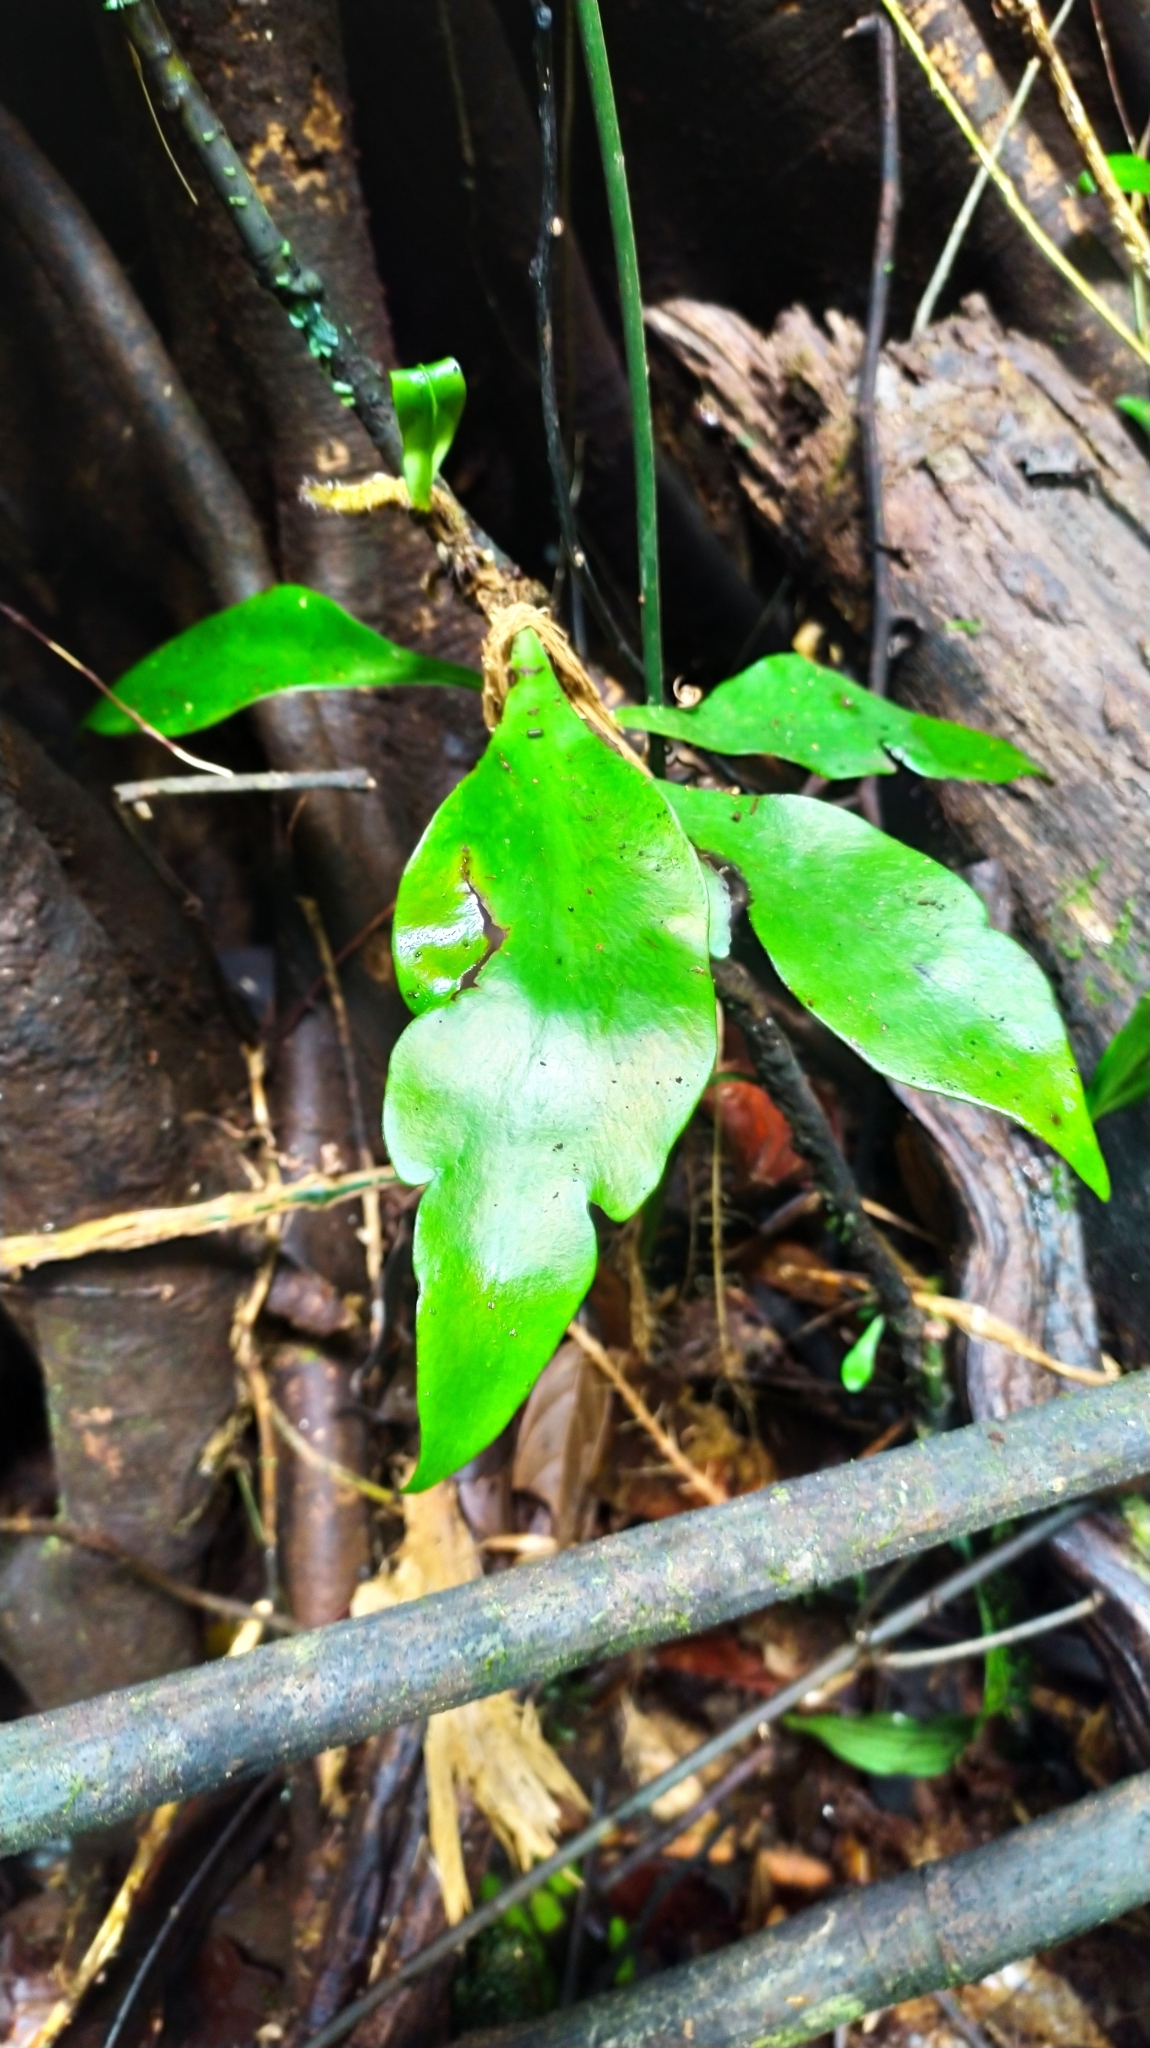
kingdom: Plantae
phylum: Tracheophyta
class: Polypodiopsida
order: Polypodiales
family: Pteridaceae
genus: Polytaenium
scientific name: Polytaenium
